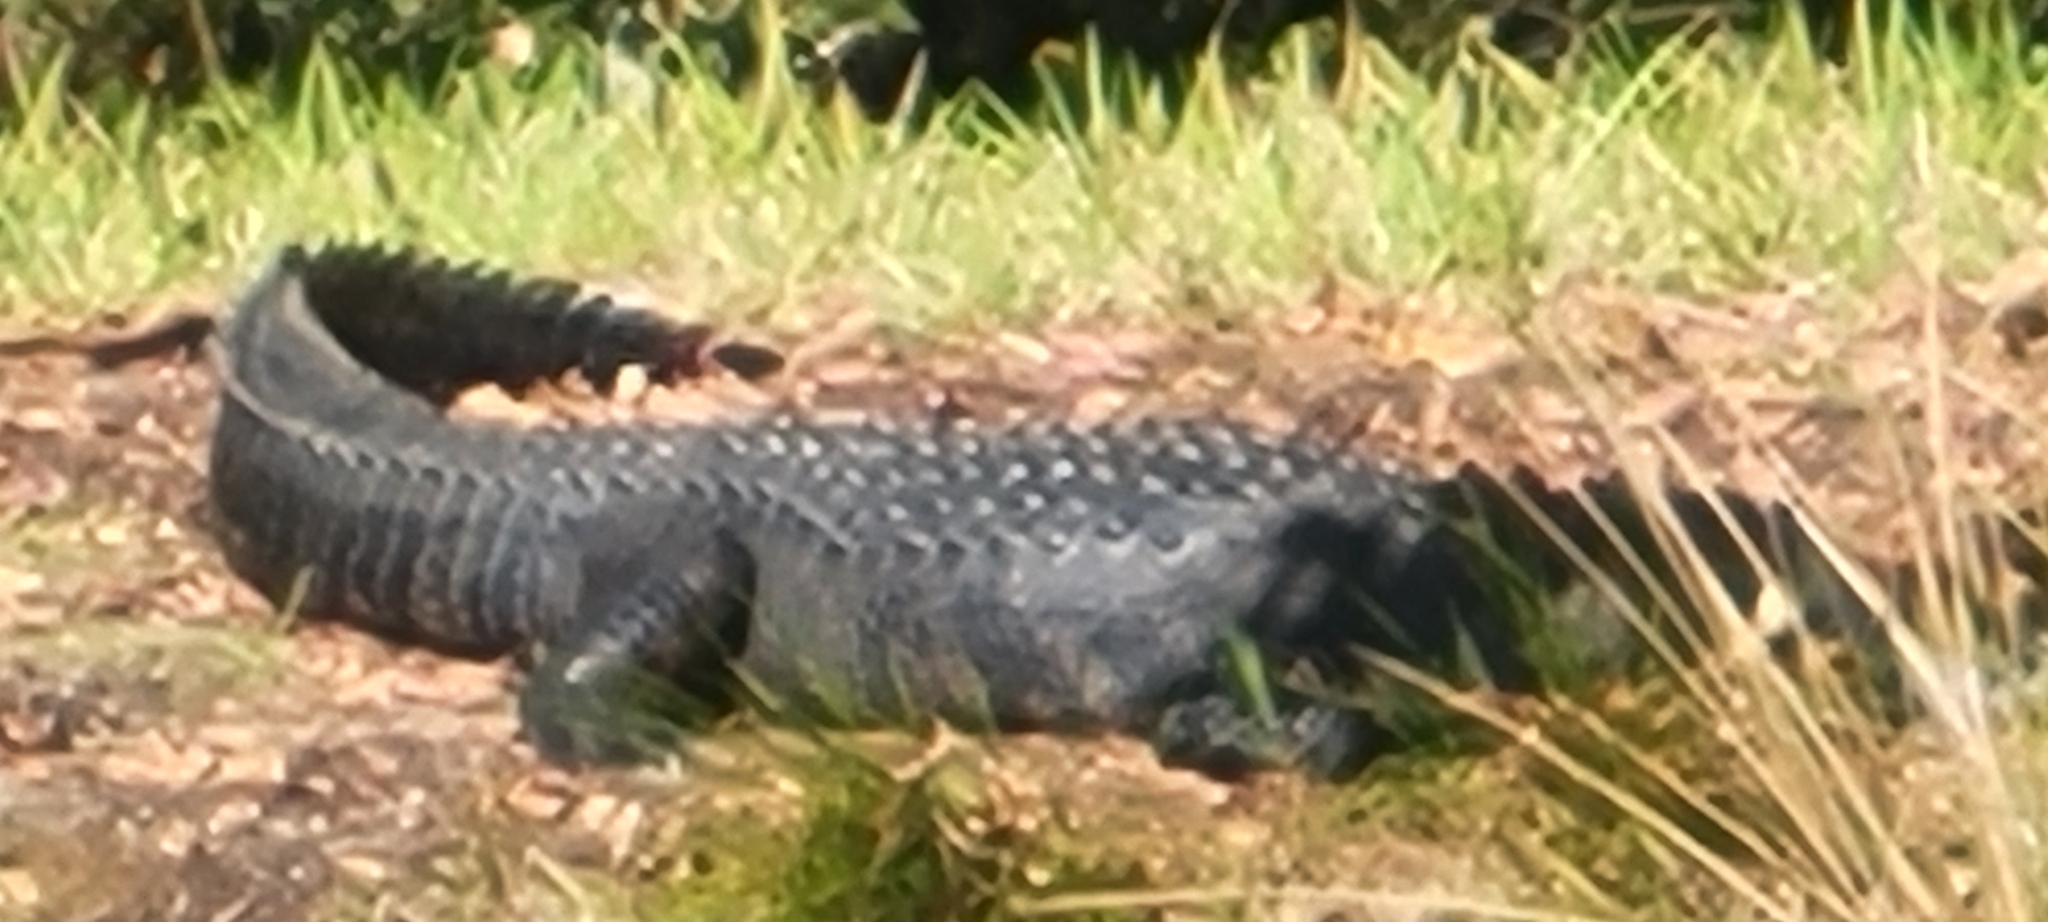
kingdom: Animalia
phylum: Chordata
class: Crocodylia
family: Alligatoridae
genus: Alligator
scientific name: Alligator mississippiensis
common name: American alligator
